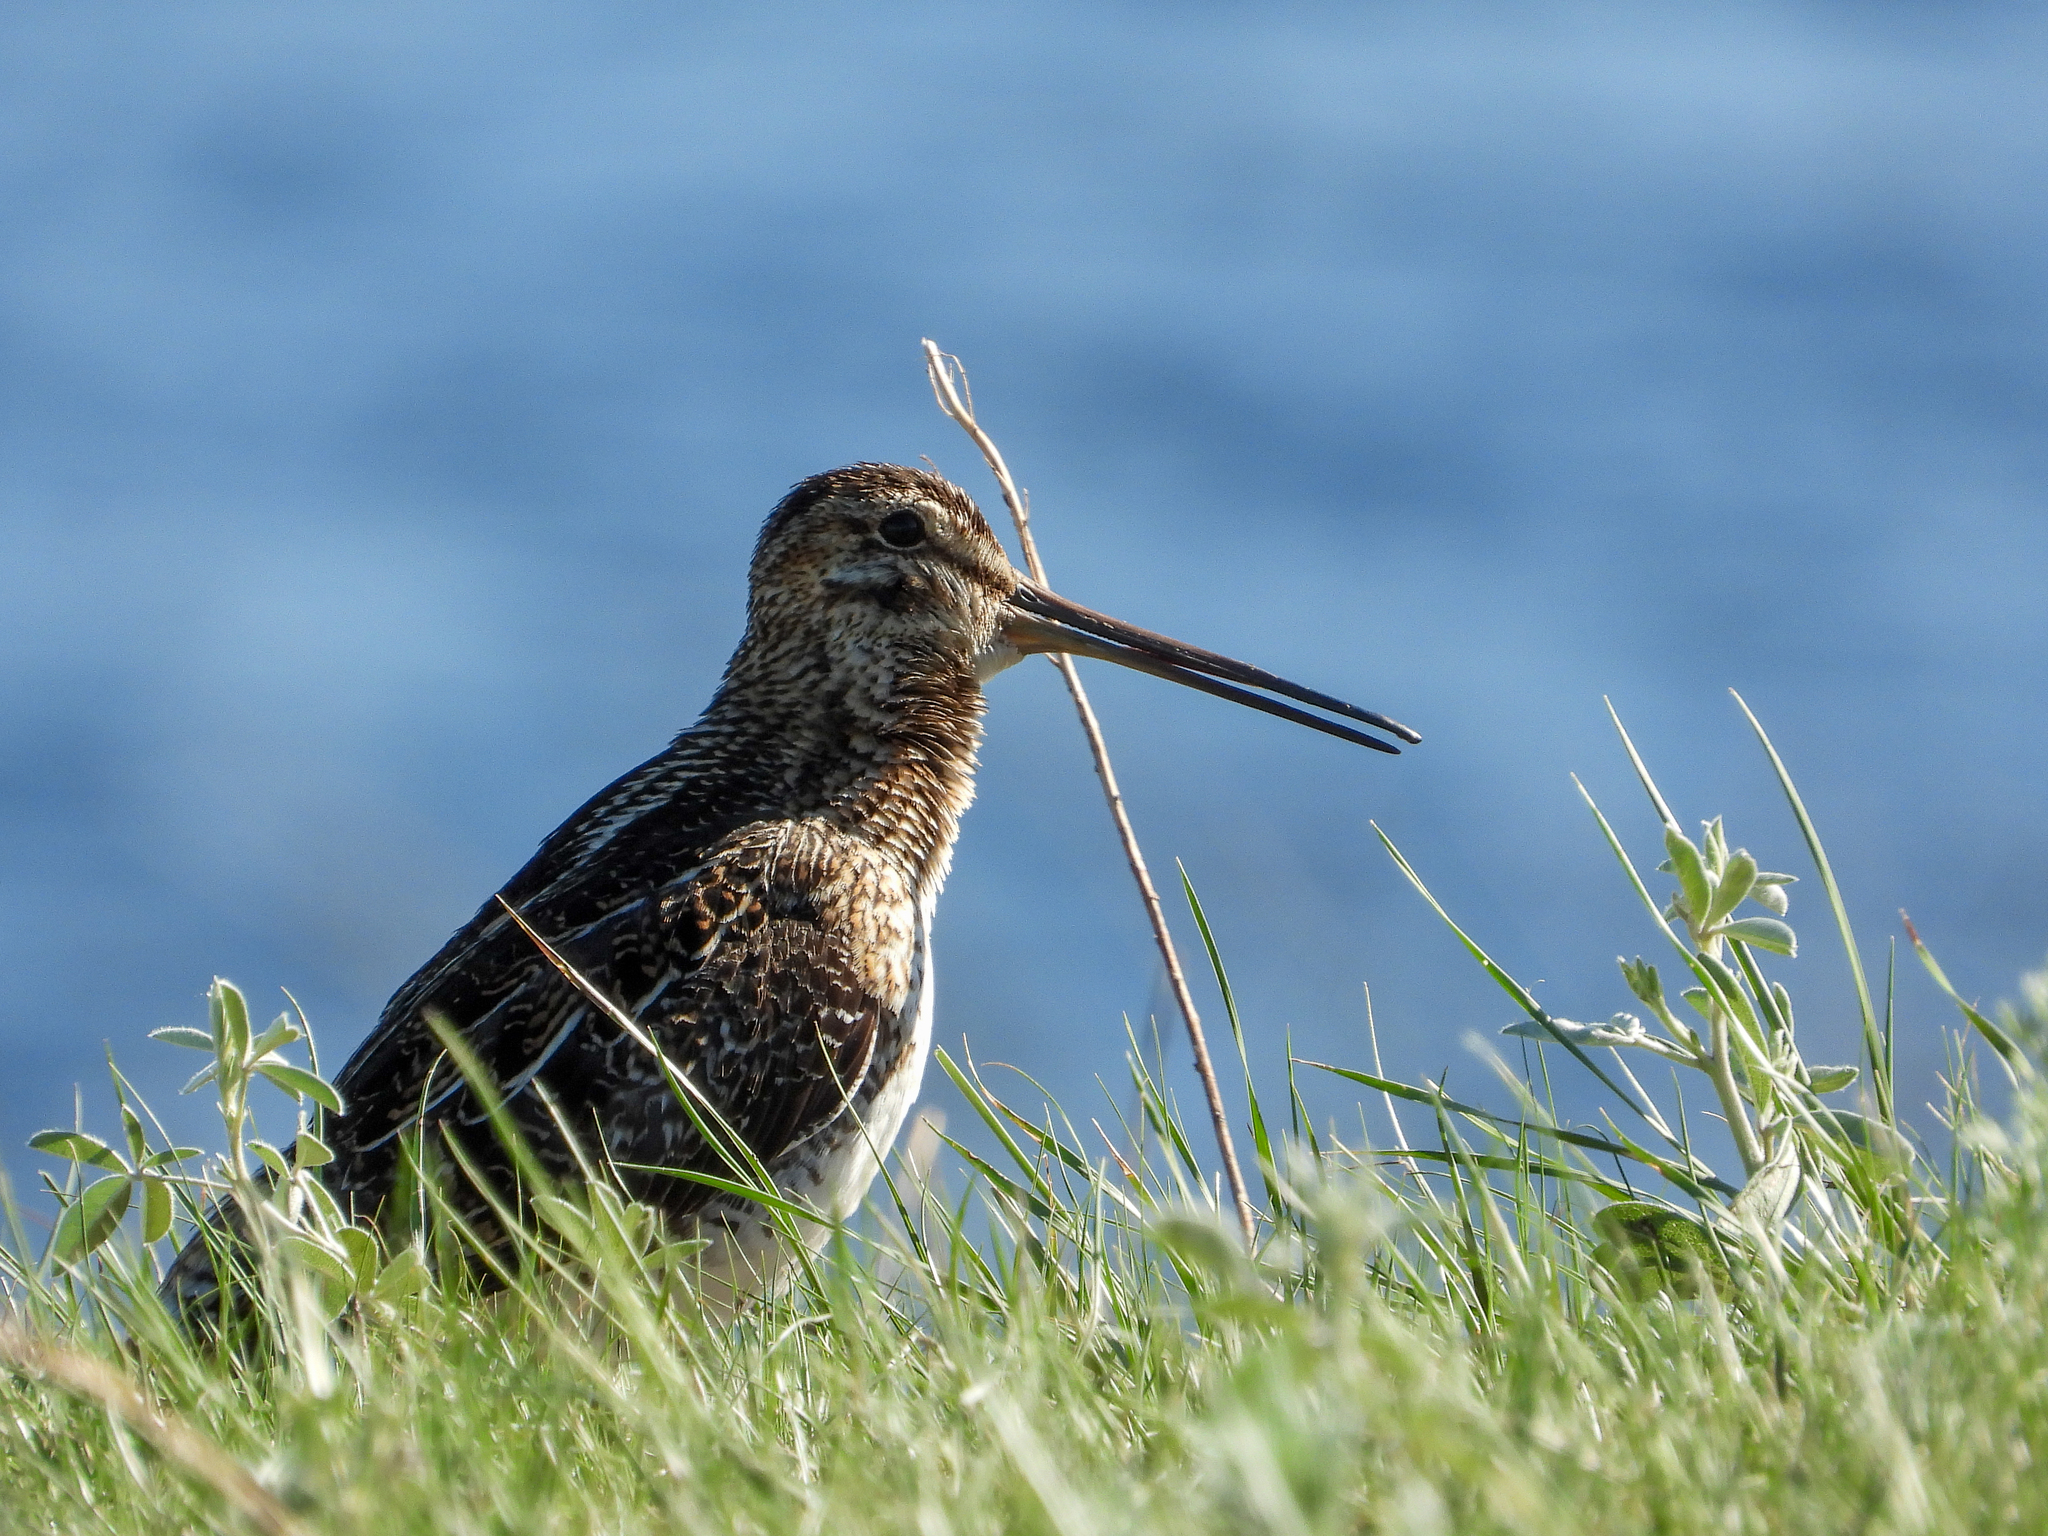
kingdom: Animalia
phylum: Chordata
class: Aves
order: Charadriiformes
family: Scolopacidae
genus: Gallinago
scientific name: Gallinago delicata
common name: Wilson's snipe
